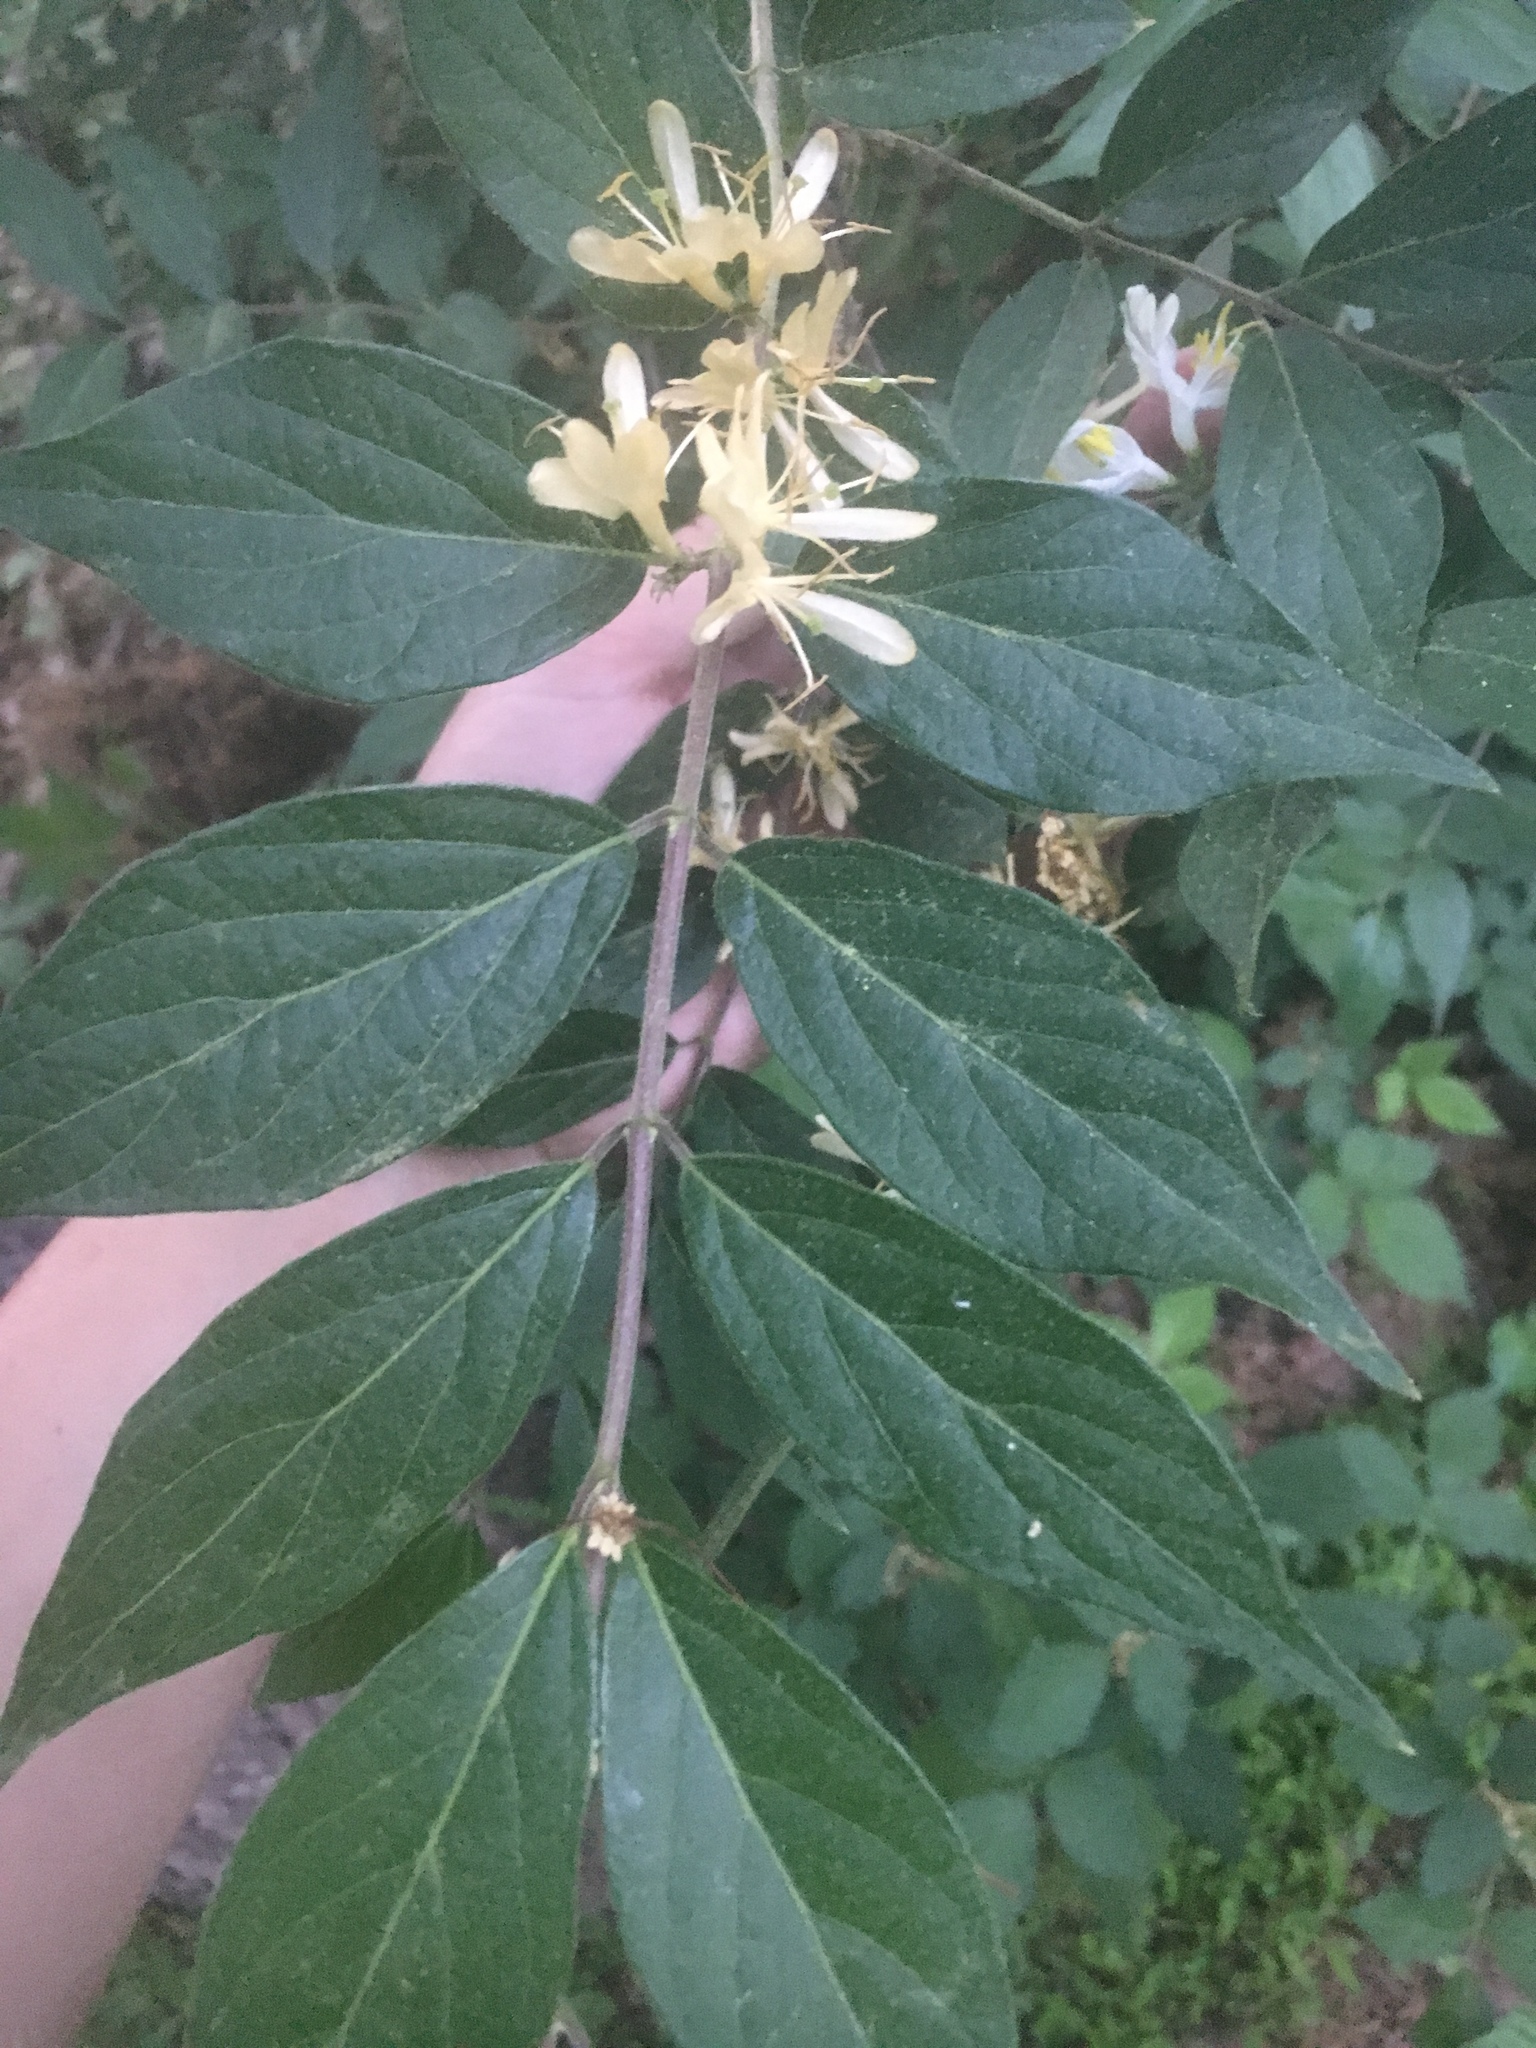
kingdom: Plantae
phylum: Tracheophyta
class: Magnoliopsida
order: Dipsacales
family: Caprifoliaceae
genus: Lonicera
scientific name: Lonicera maackii
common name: Amur honeysuckle
